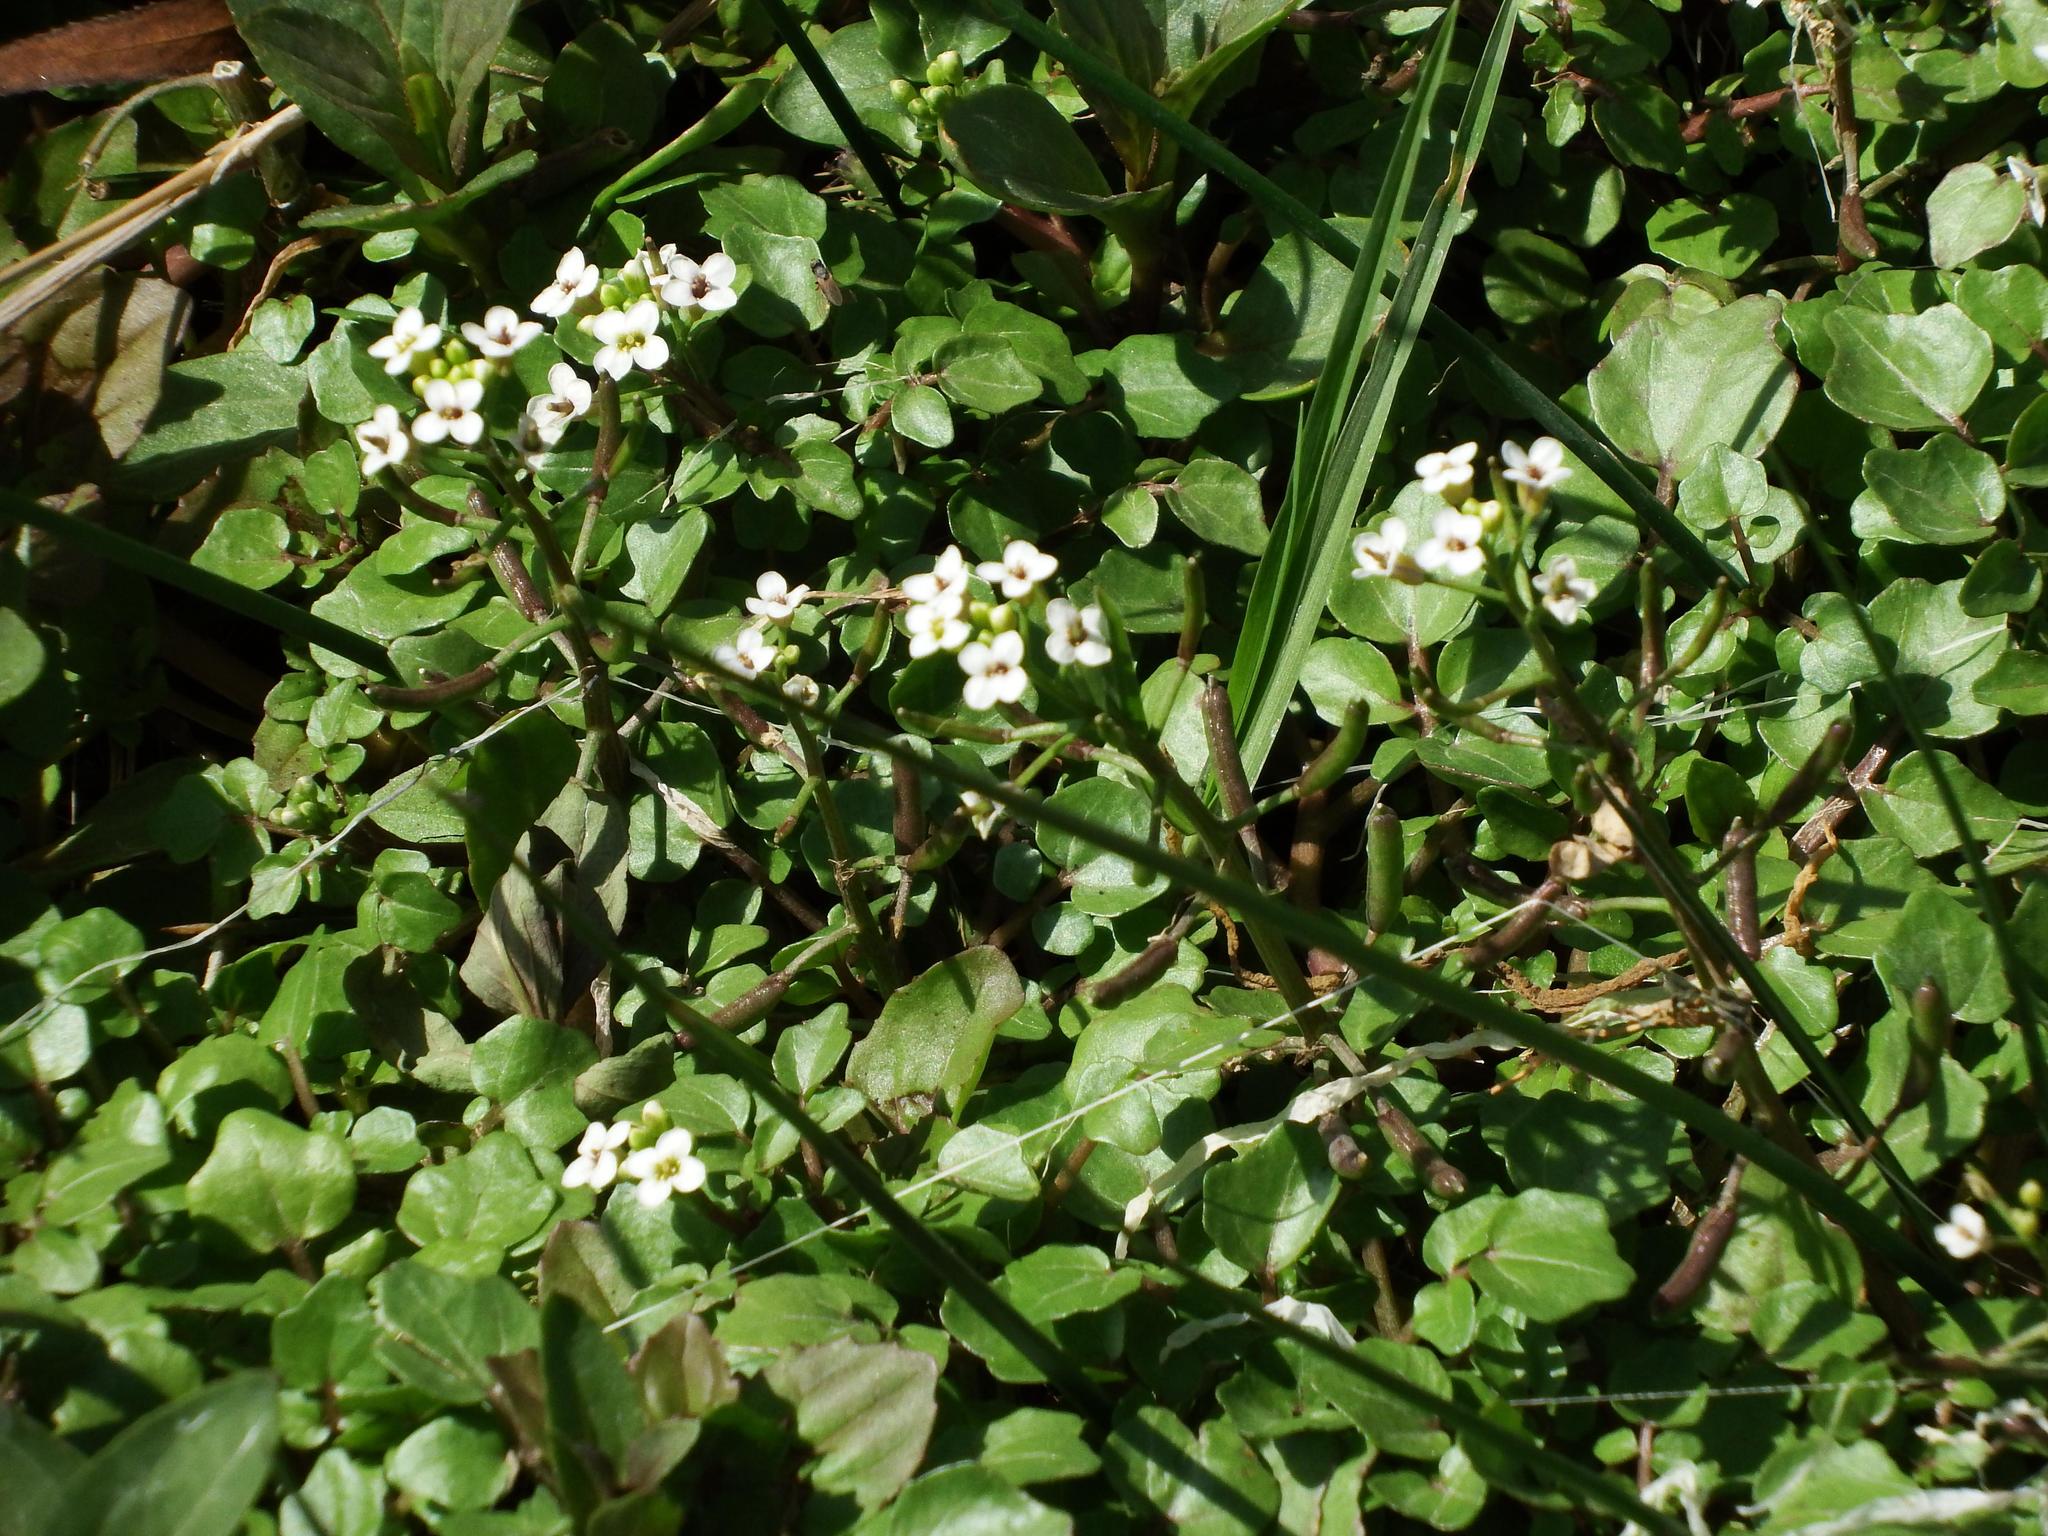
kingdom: Plantae
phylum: Tracheophyta
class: Magnoliopsida
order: Brassicales
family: Brassicaceae
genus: Nasturtium
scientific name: Nasturtium officinale
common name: Watercress
